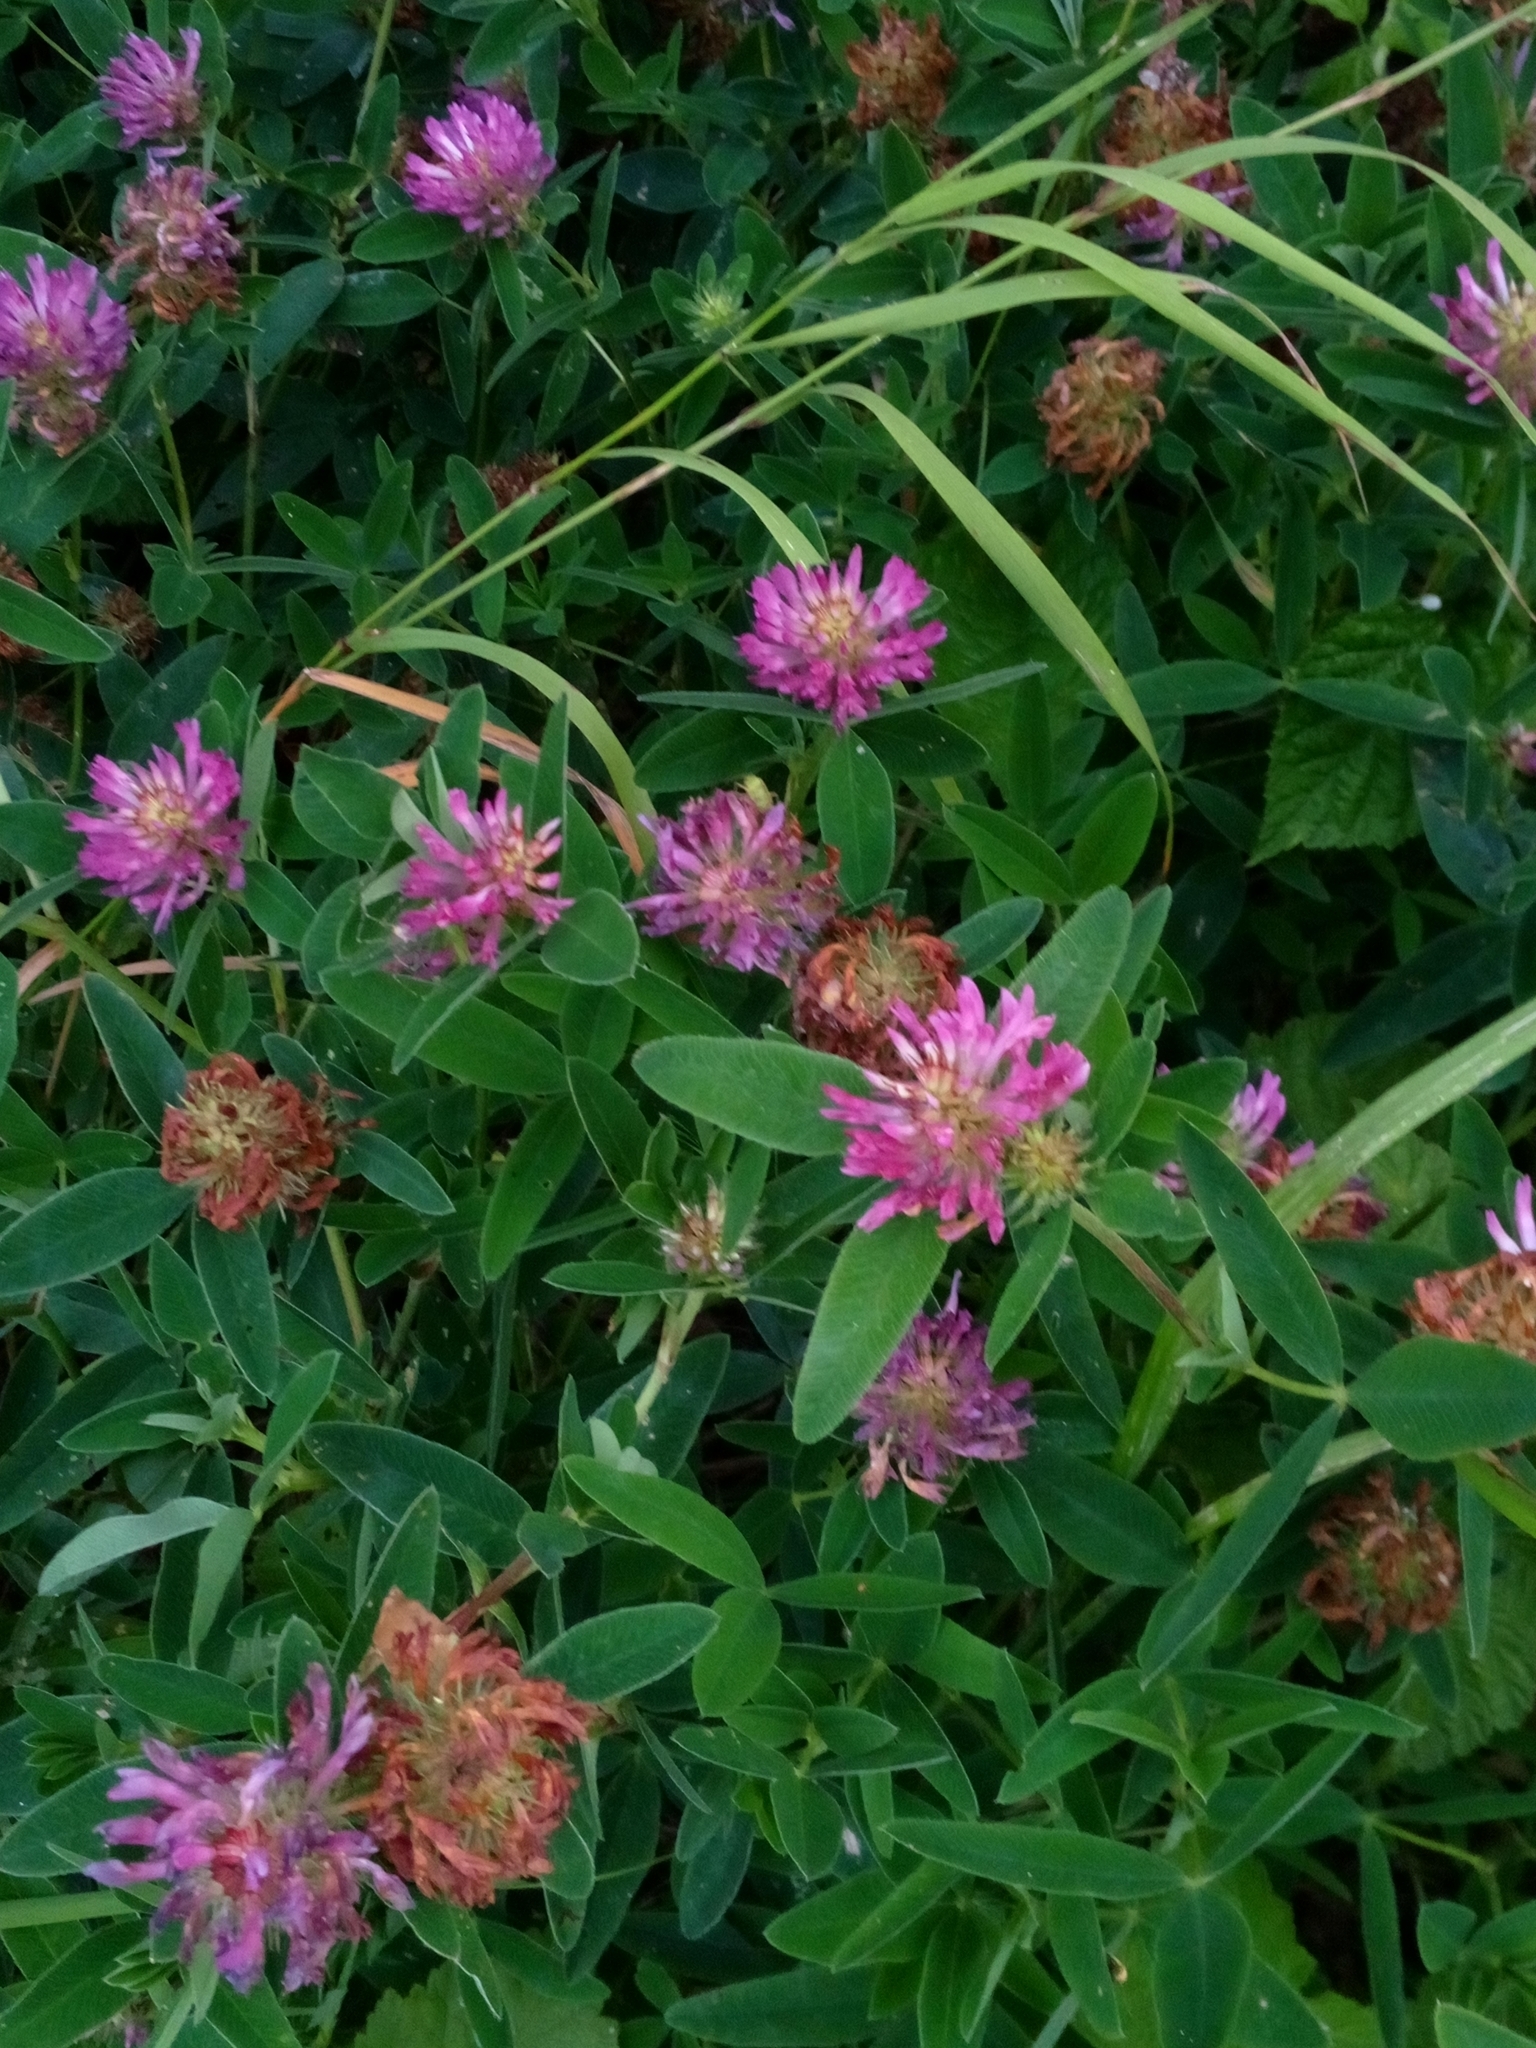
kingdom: Plantae
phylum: Tracheophyta
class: Magnoliopsida
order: Fabales
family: Fabaceae
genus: Trifolium
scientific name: Trifolium medium
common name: Zigzag clover
